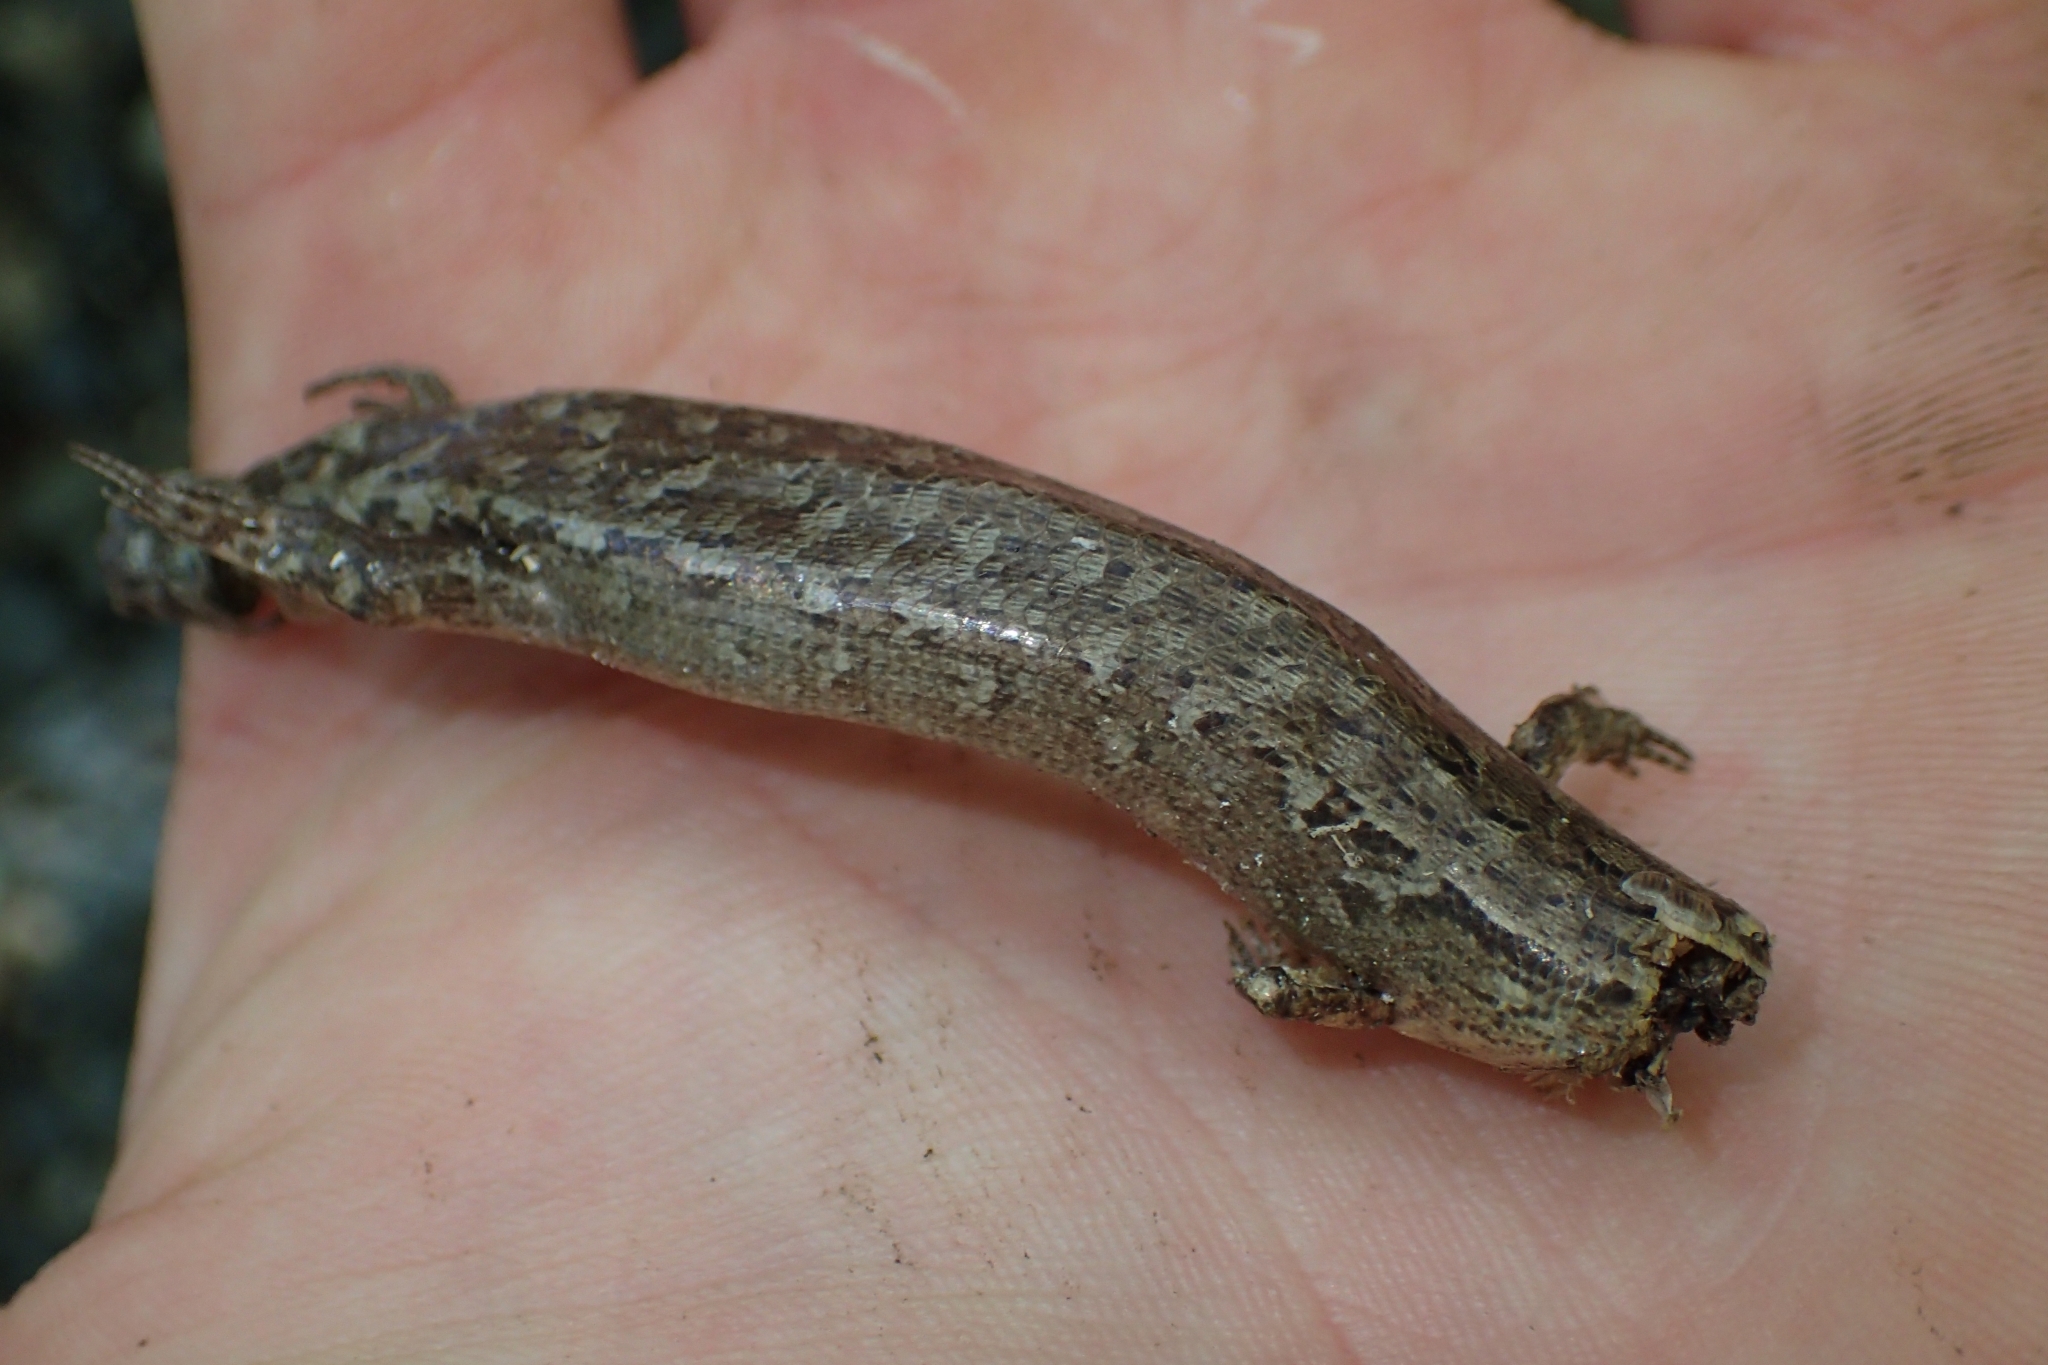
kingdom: Animalia
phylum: Chordata
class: Squamata
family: Scincidae
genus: Oligosoma
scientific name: Oligosoma ornatum
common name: Gray's ornate skink
